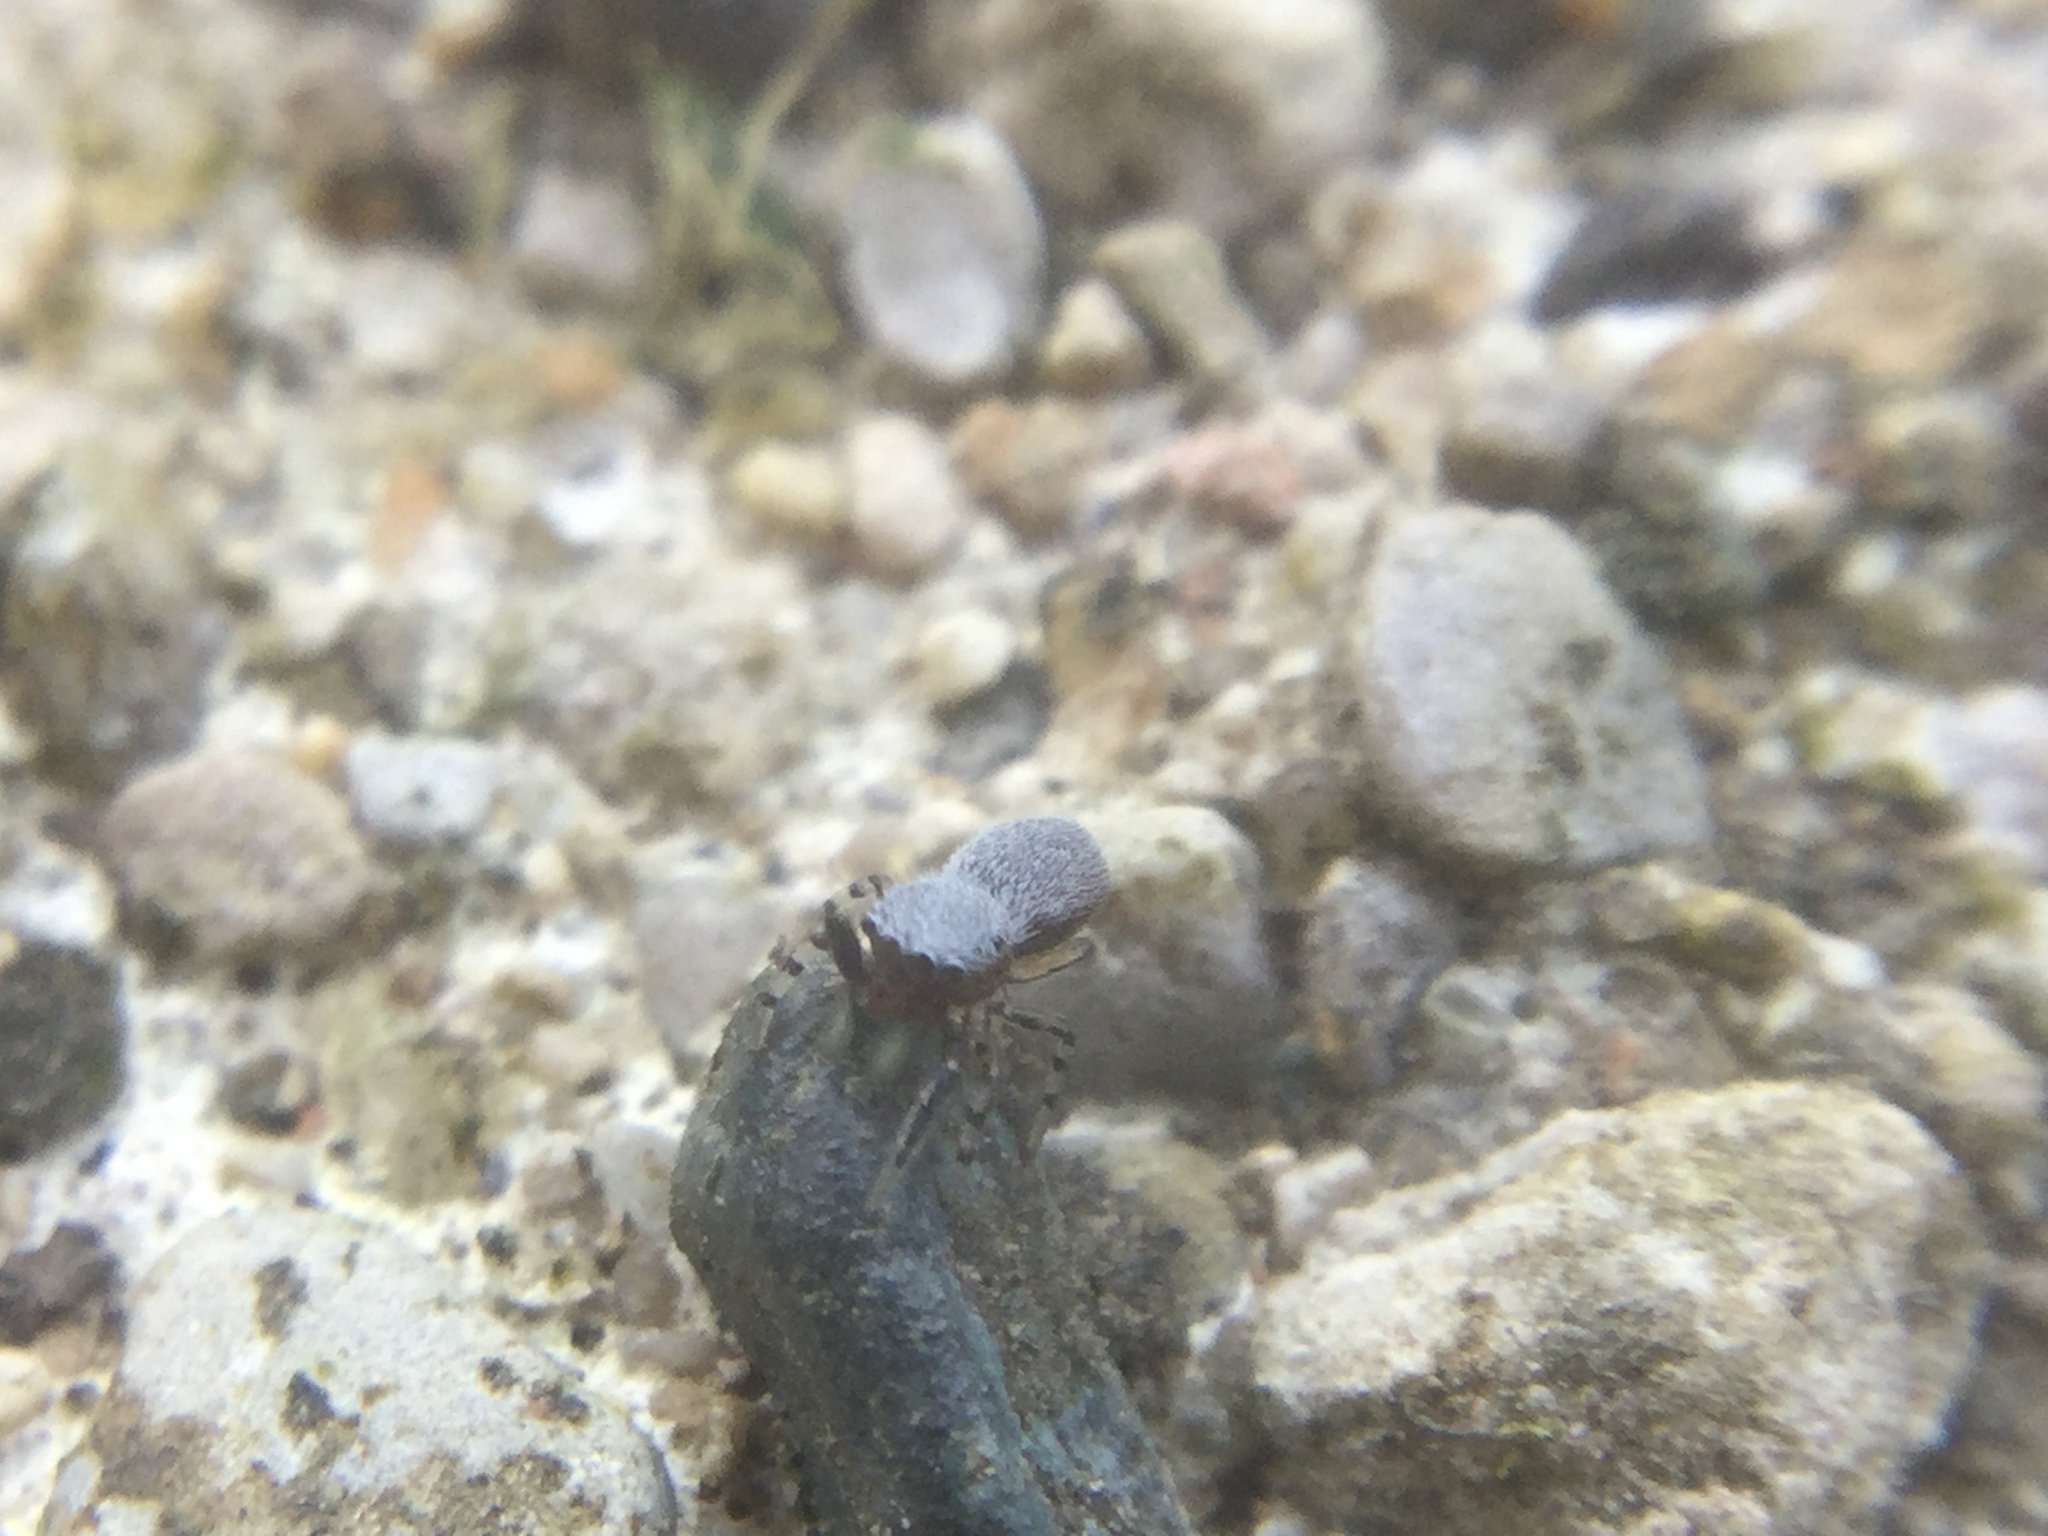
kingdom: Animalia
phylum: Arthropoda
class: Arachnida
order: Araneae
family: Salticidae
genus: Tutelina
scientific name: Tutelina elegans
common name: Thin-spined jumping spider
